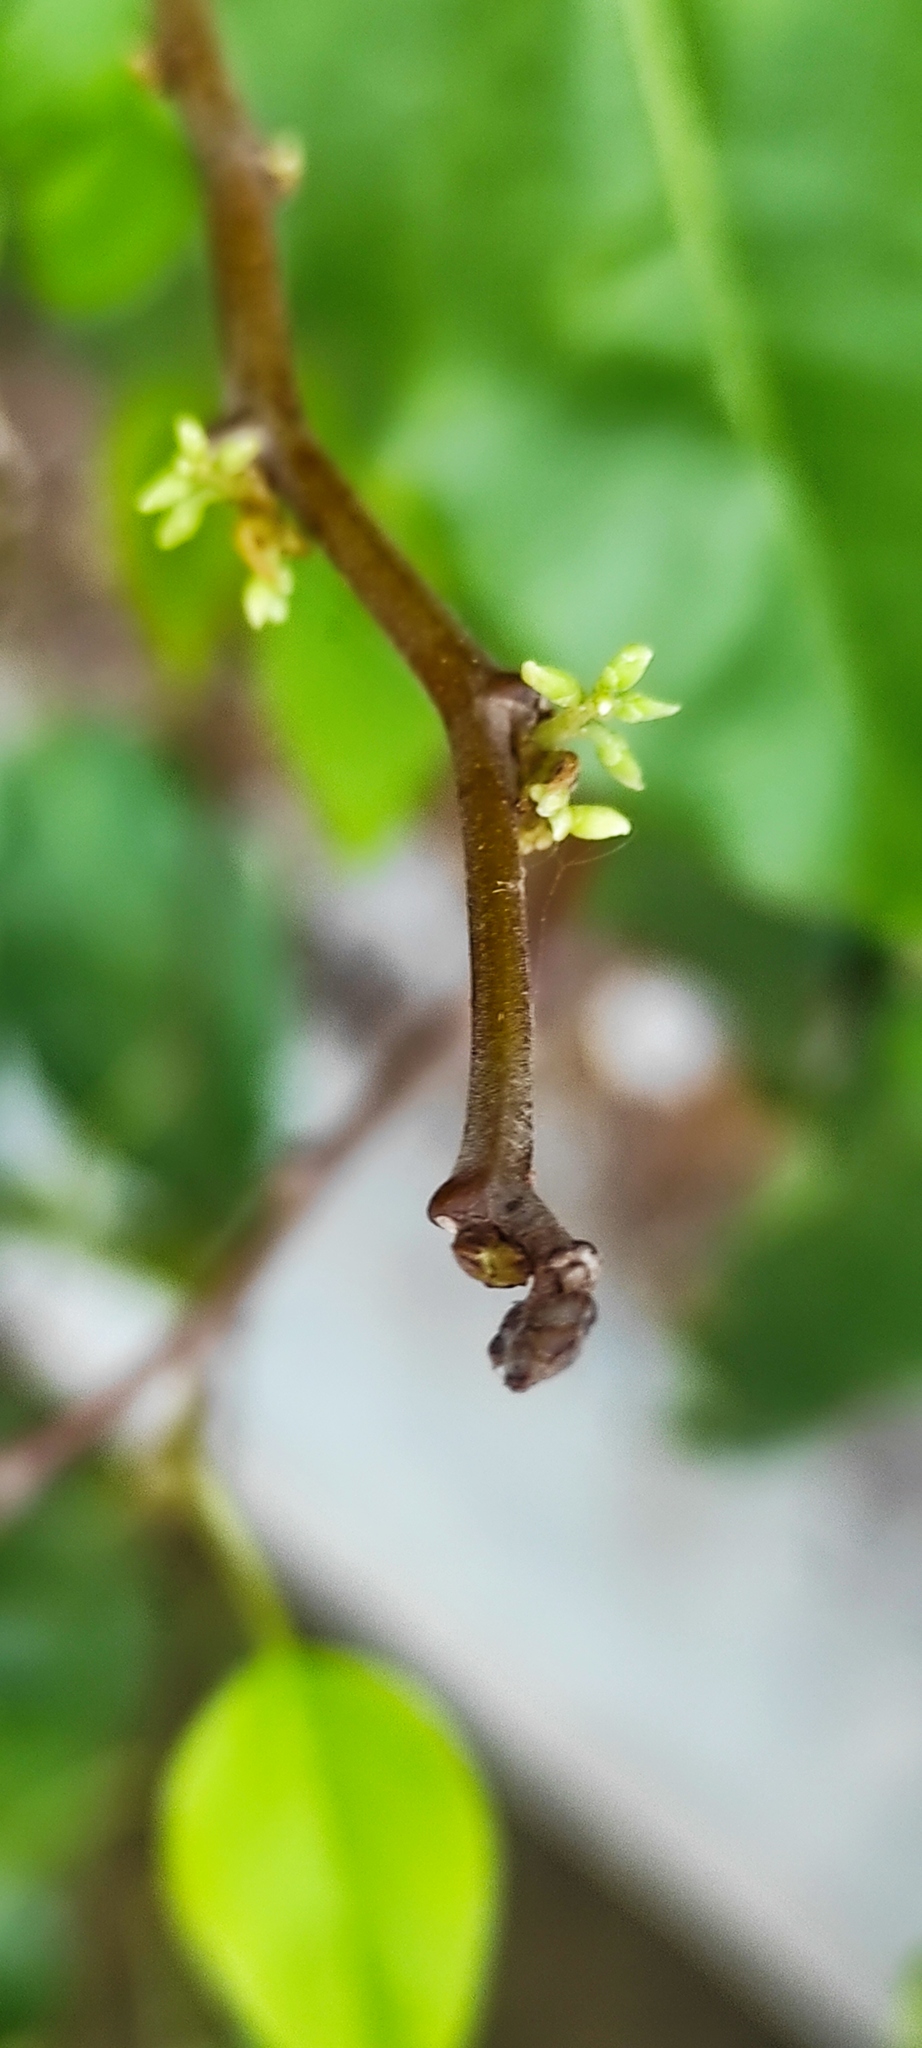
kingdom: Plantae
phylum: Tracheophyta
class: Magnoliopsida
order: Fabales
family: Fabaceae
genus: Dalbergia
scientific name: Dalbergia ecastaphyllum
